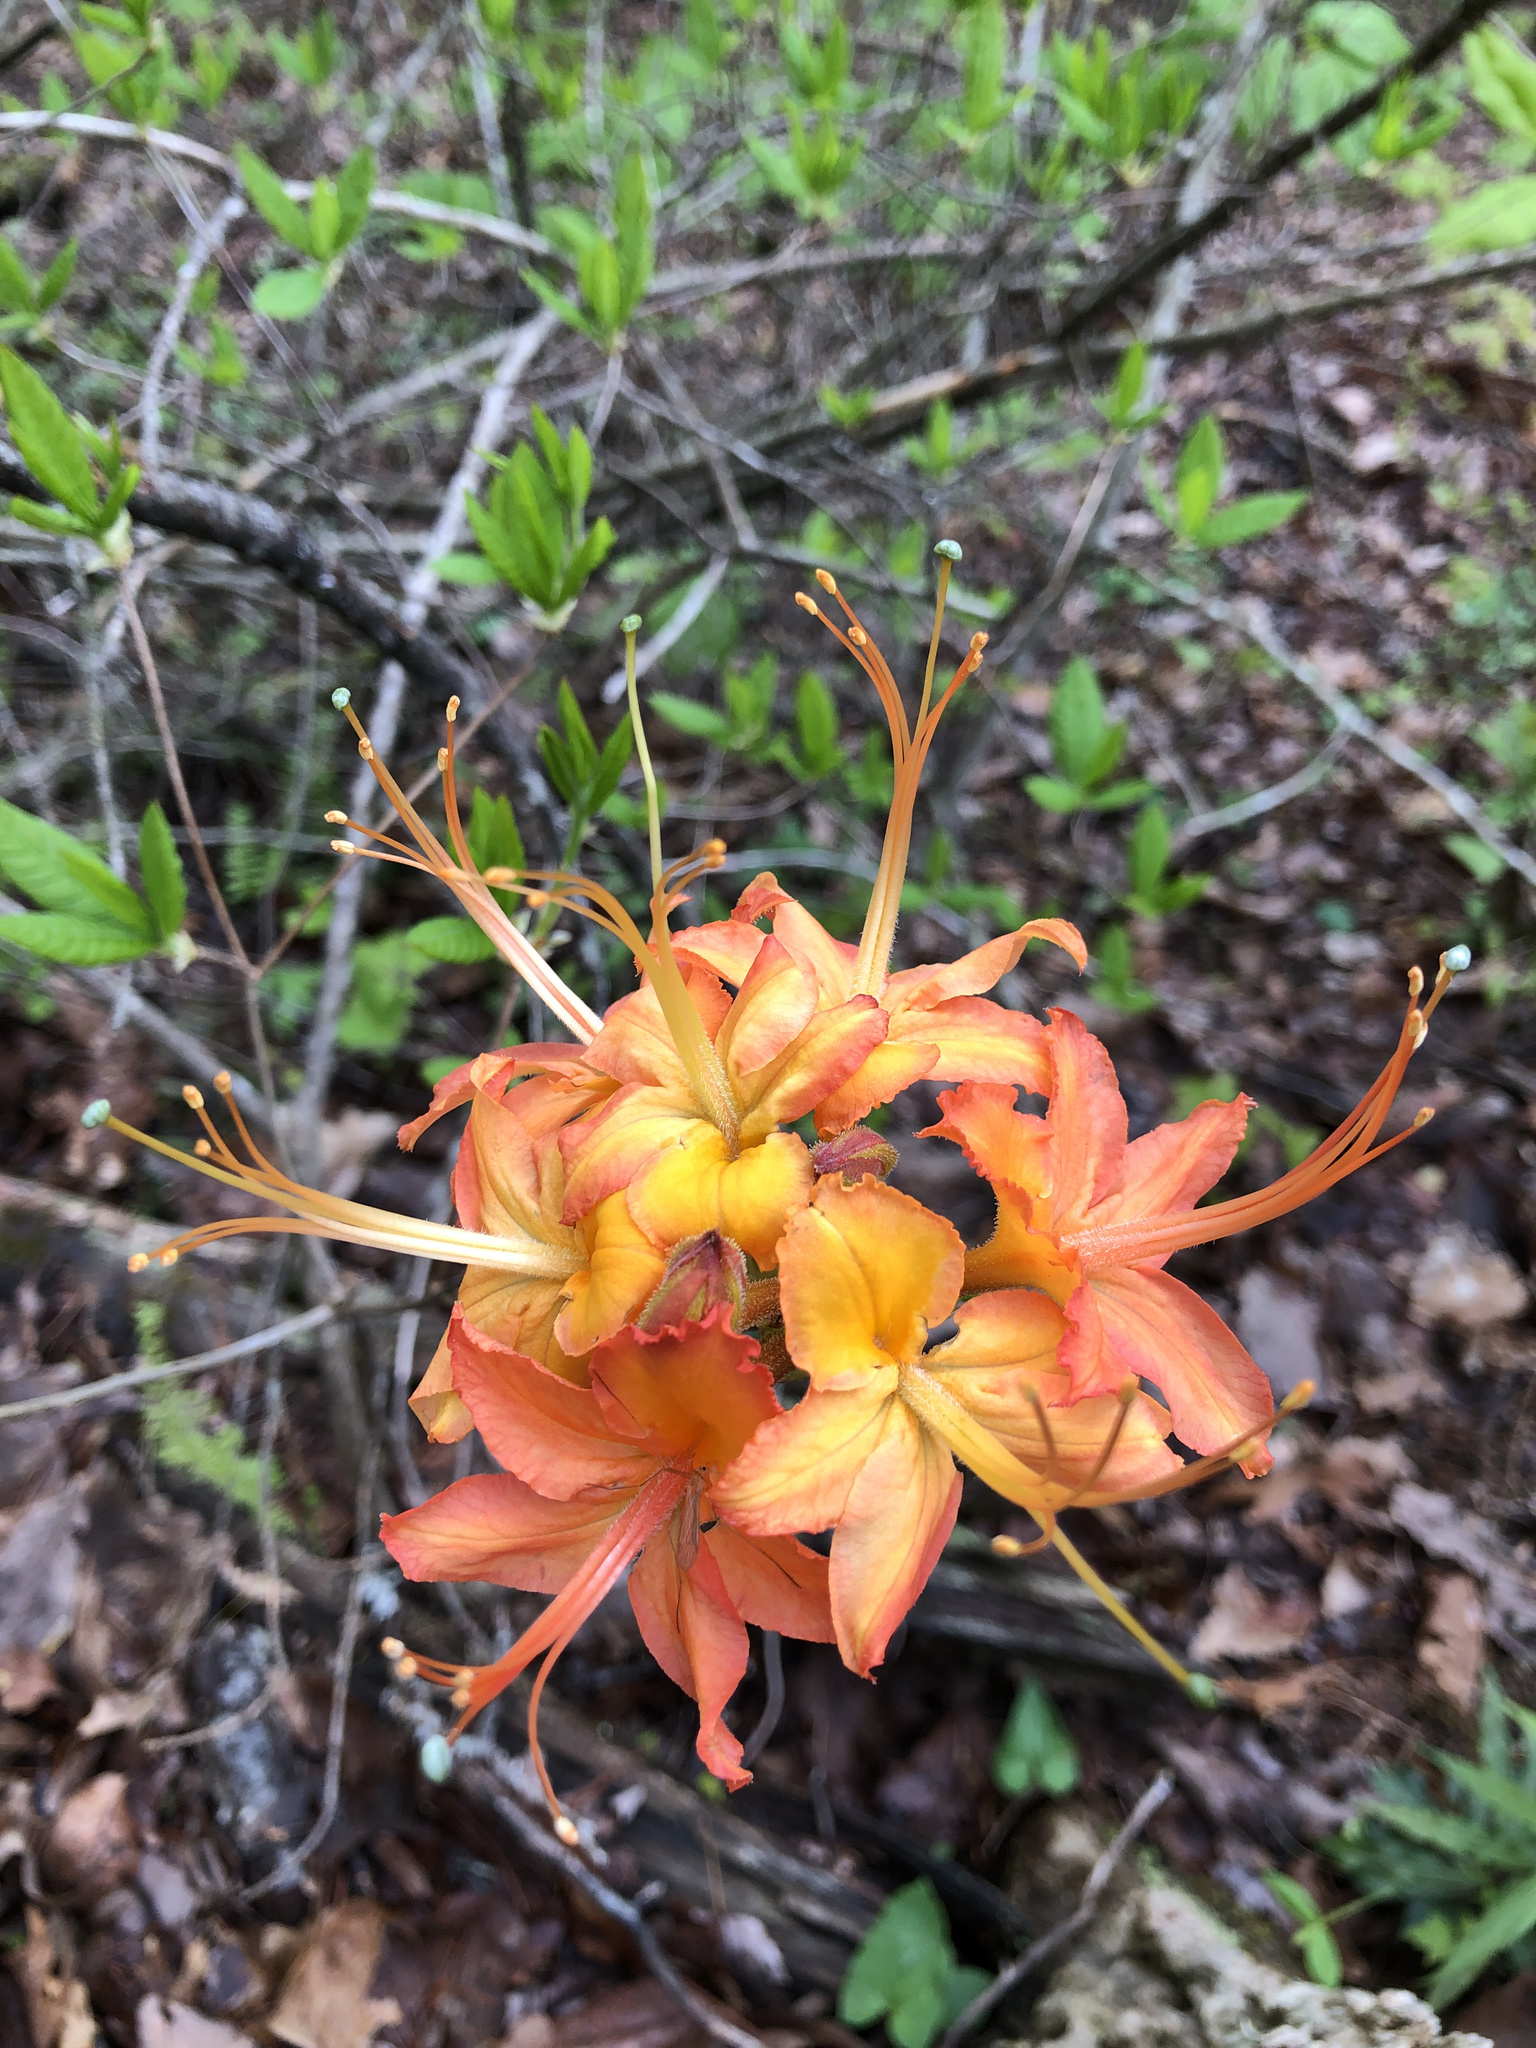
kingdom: Plantae
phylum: Tracheophyta
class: Magnoliopsida
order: Ericales
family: Ericaceae
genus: Rhododendron
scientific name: Rhododendron calendulaceum
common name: Flame azalea
